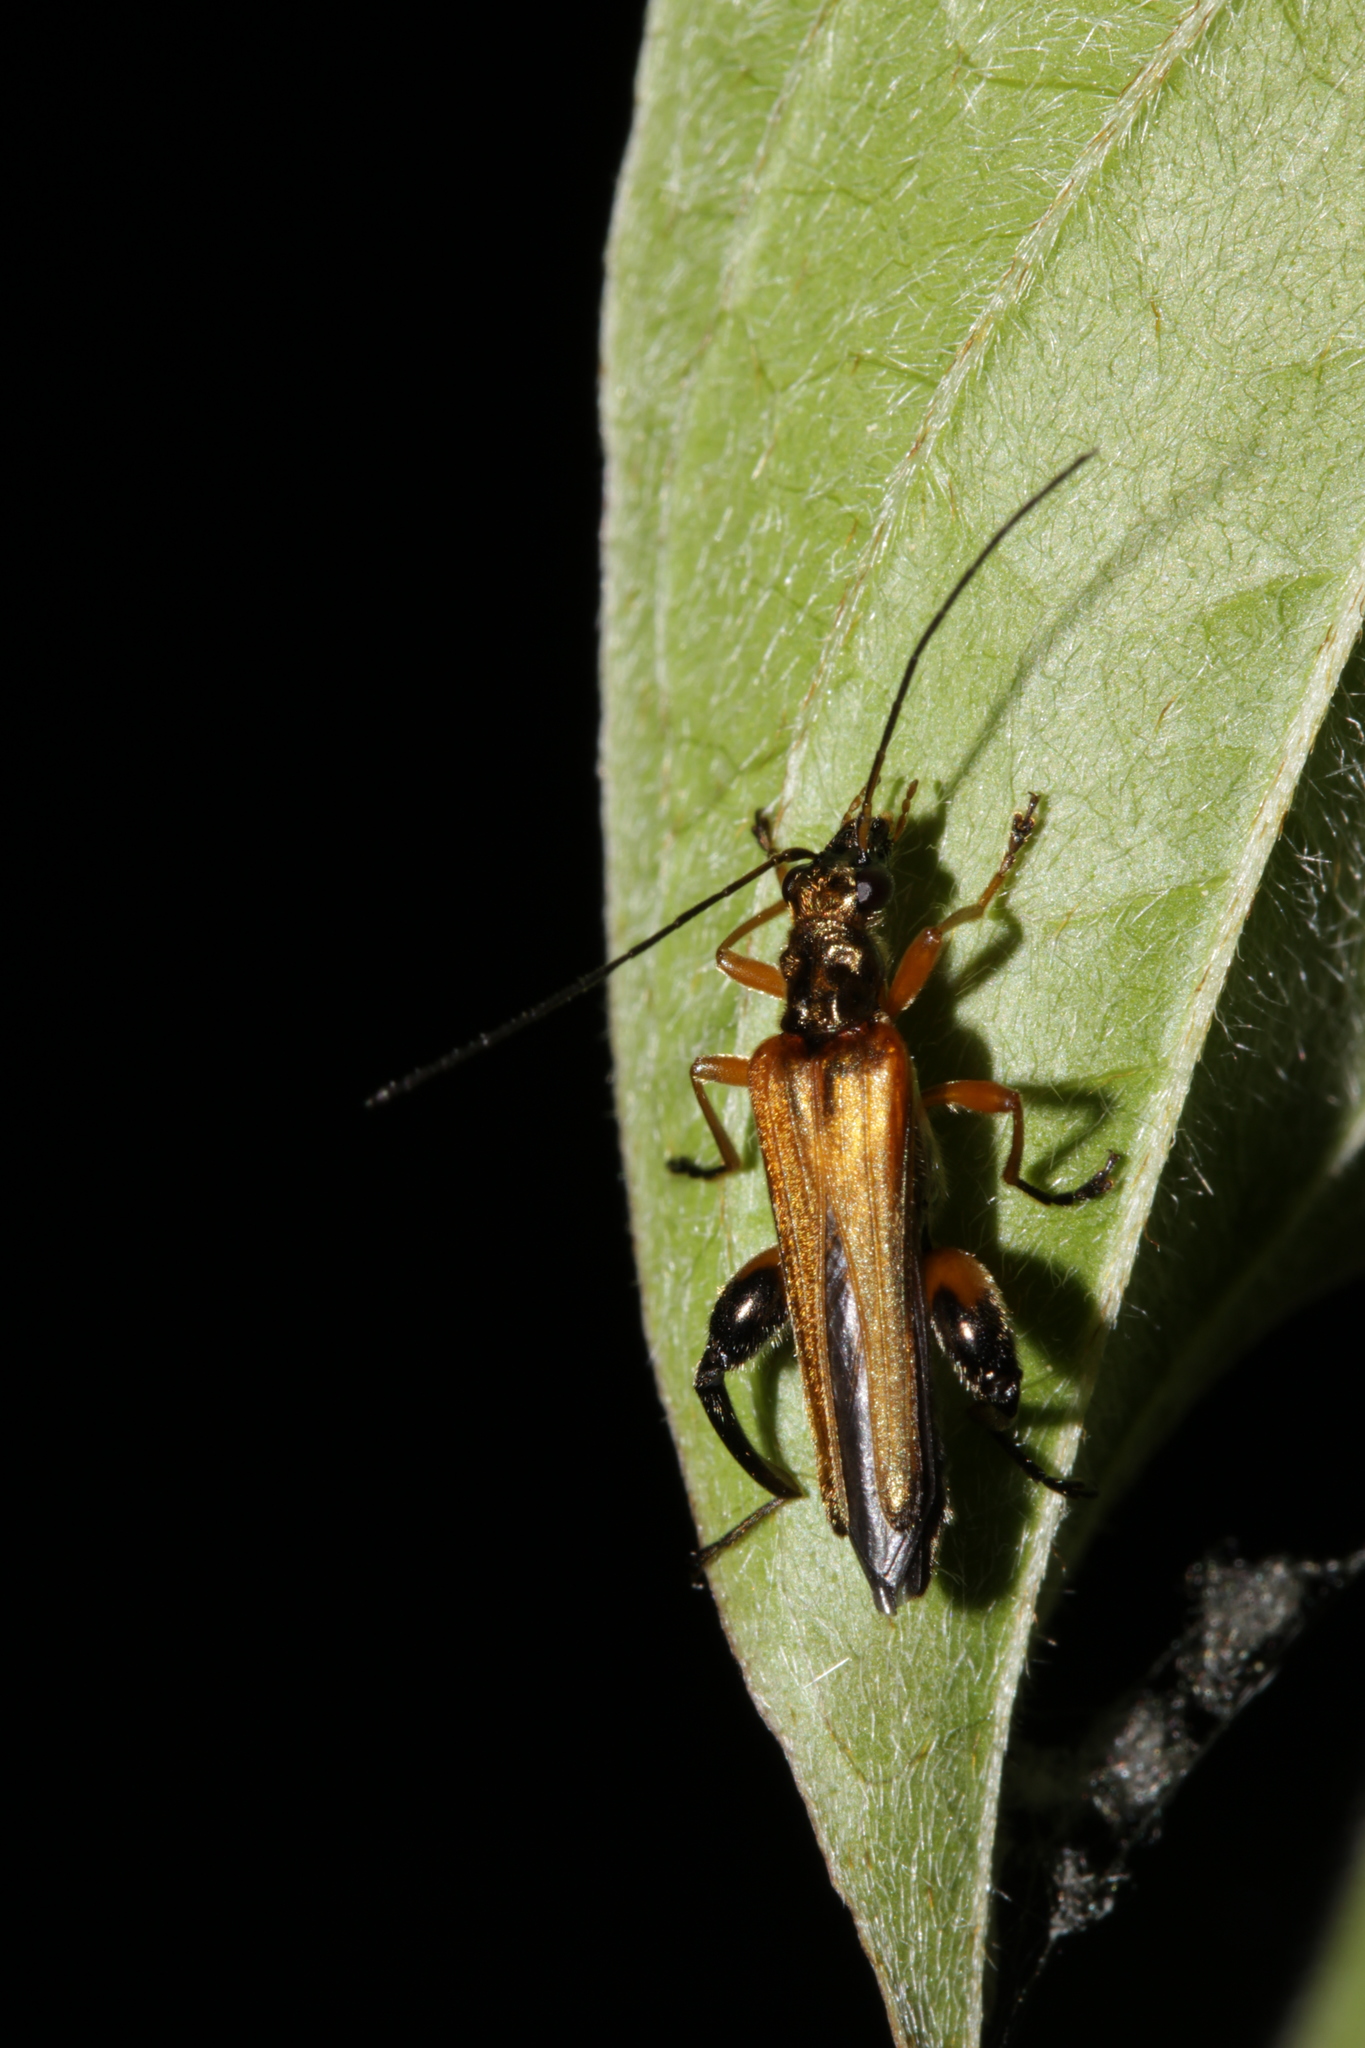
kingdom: Animalia
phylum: Arthropoda
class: Insecta
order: Coleoptera
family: Oedemeridae
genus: Oedemera
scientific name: Oedemera podagrariae
